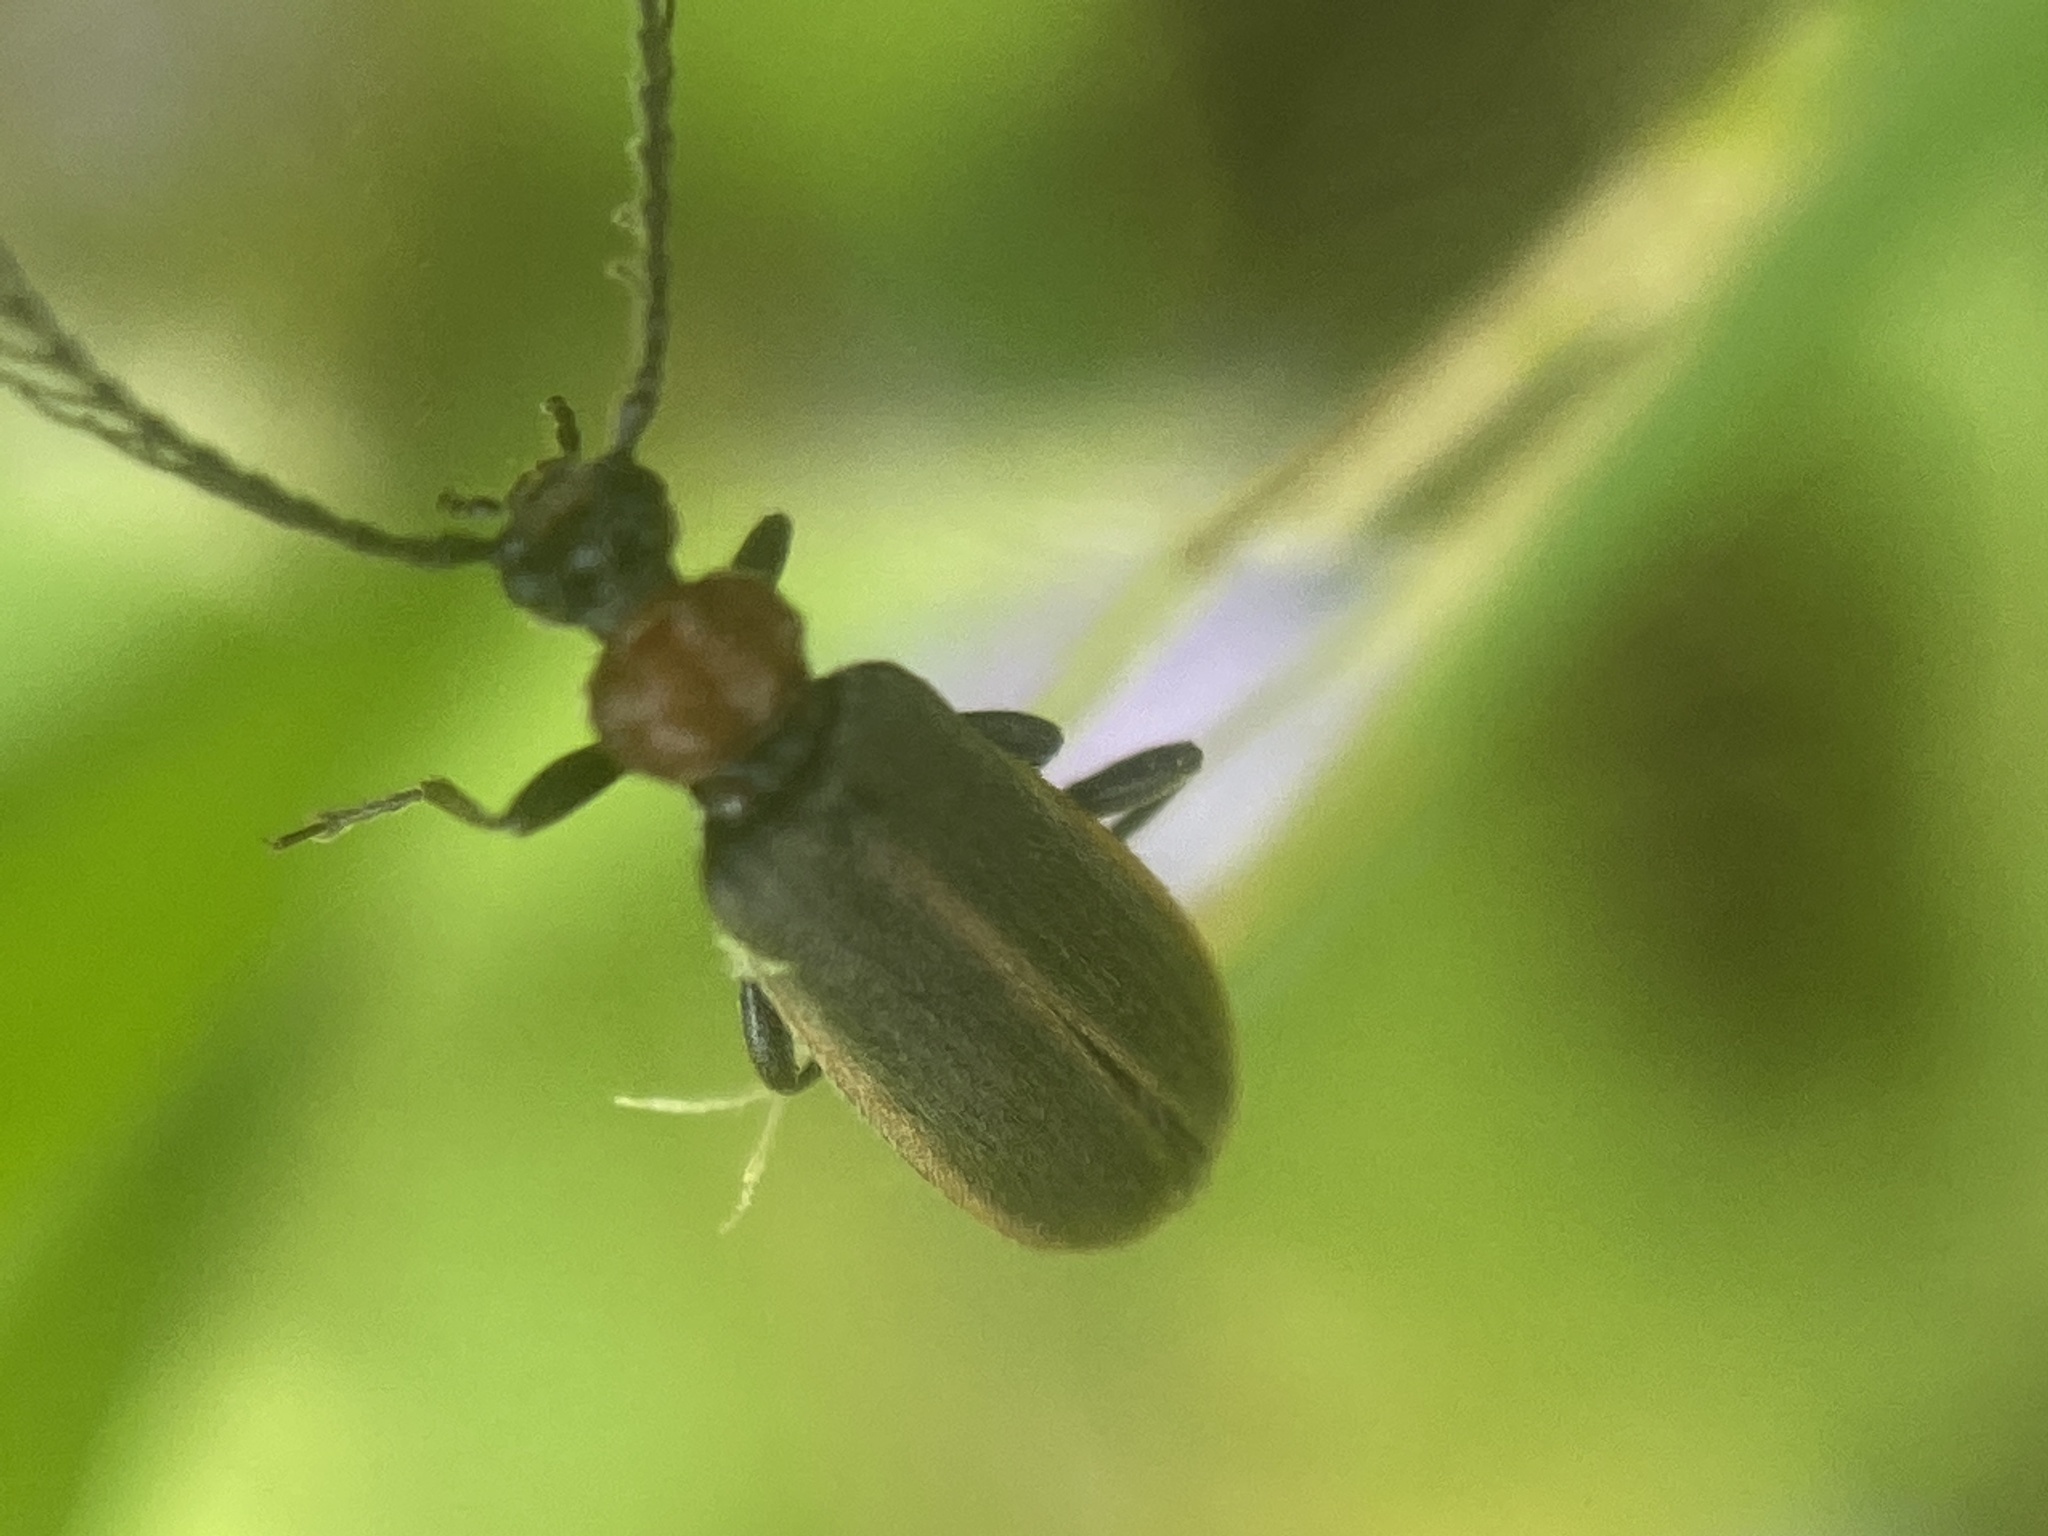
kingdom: Animalia
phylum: Arthropoda
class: Insecta
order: Coleoptera
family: Pyrochroidae
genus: Schizotus
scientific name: Schizotus cervicalis
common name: Flaming-pillow beetle
